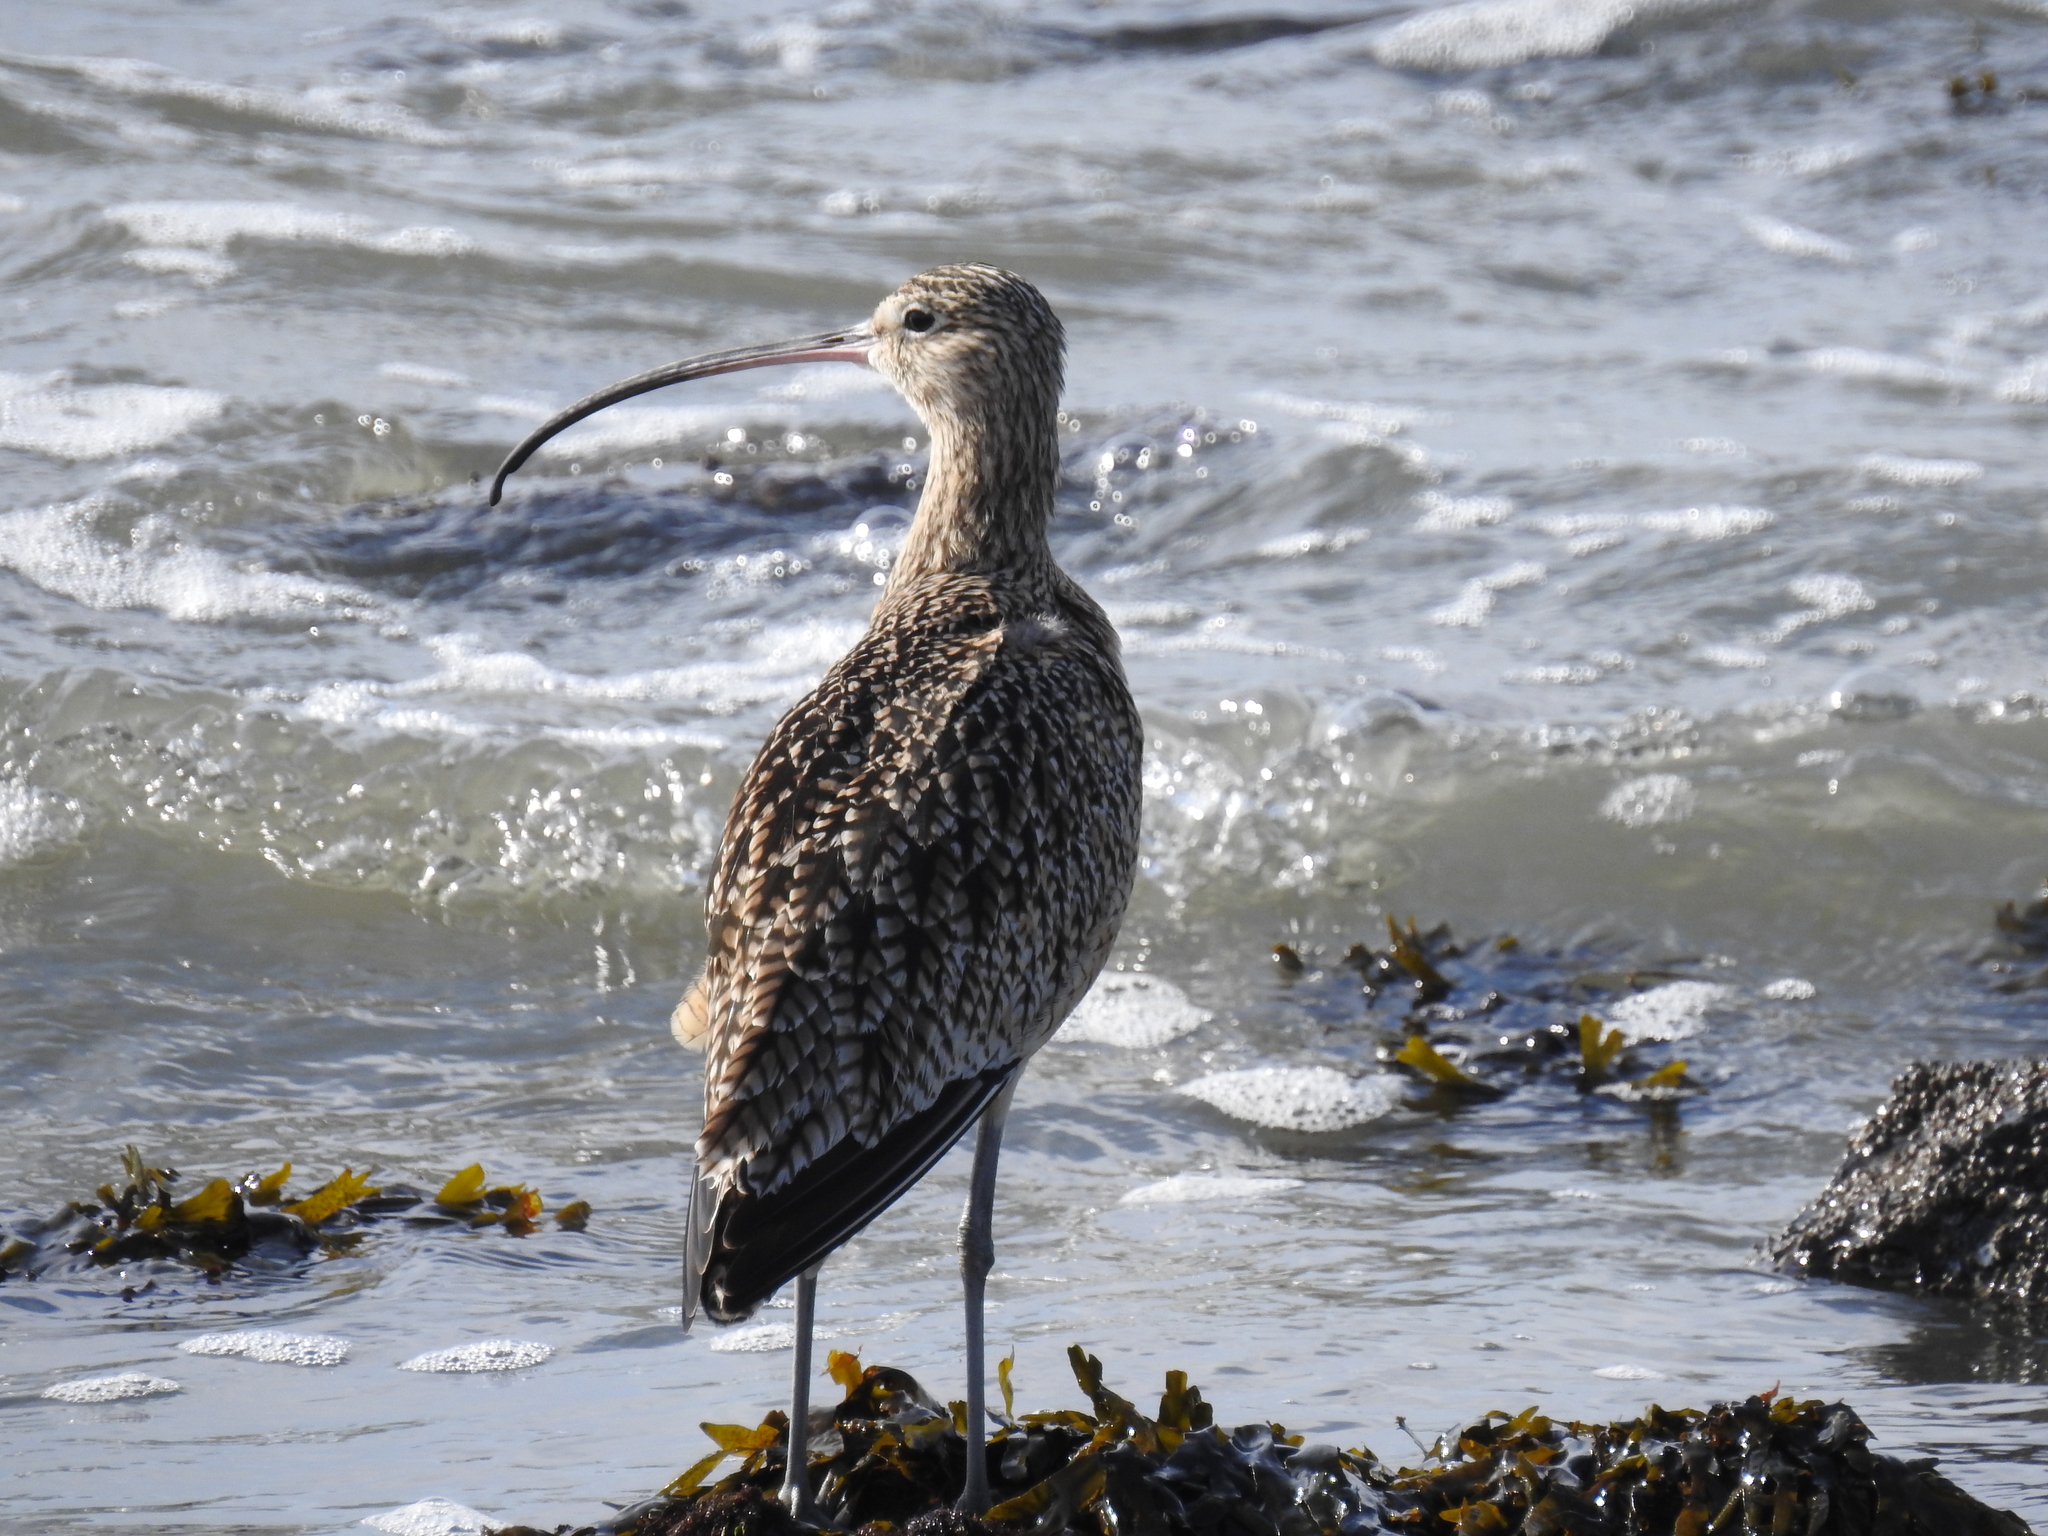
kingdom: Animalia
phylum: Chordata
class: Aves
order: Charadriiformes
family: Scolopacidae
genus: Numenius
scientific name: Numenius americanus
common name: Long-billed curlew
